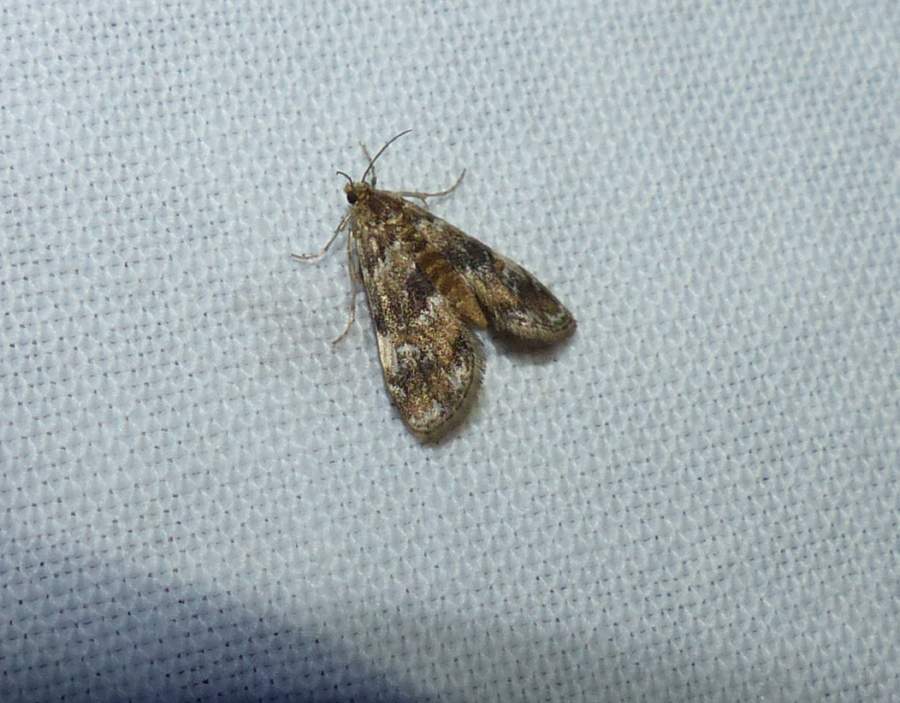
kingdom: Animalia
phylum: Arthropoda
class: Insecta
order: Lepidoptera
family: Crambidae
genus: Elophila
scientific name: Elophila obliteralis
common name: Waterlily leafcutter moth
